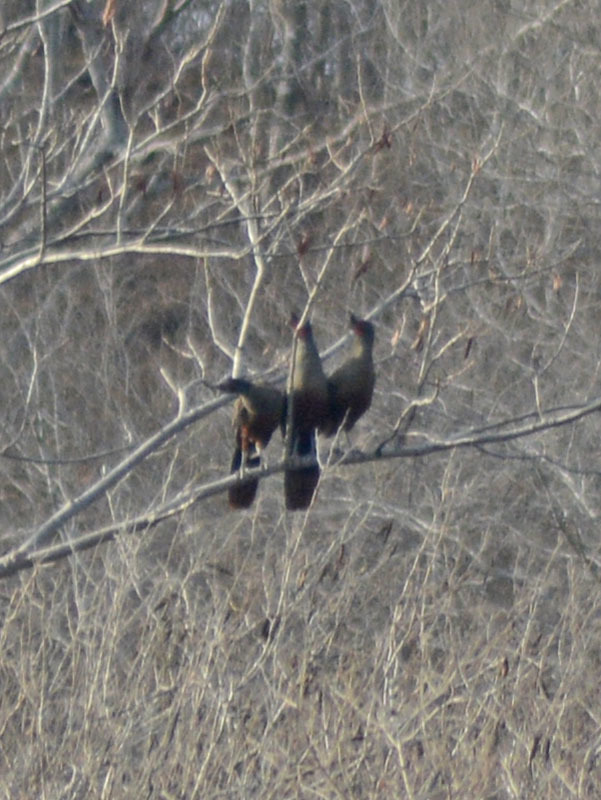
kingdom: Animalia
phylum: Chordata
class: Aves
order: Galliformes
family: Cracidae
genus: Ortalis
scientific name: Ortalis wagleri
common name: Rufous-bellied chachalaca
